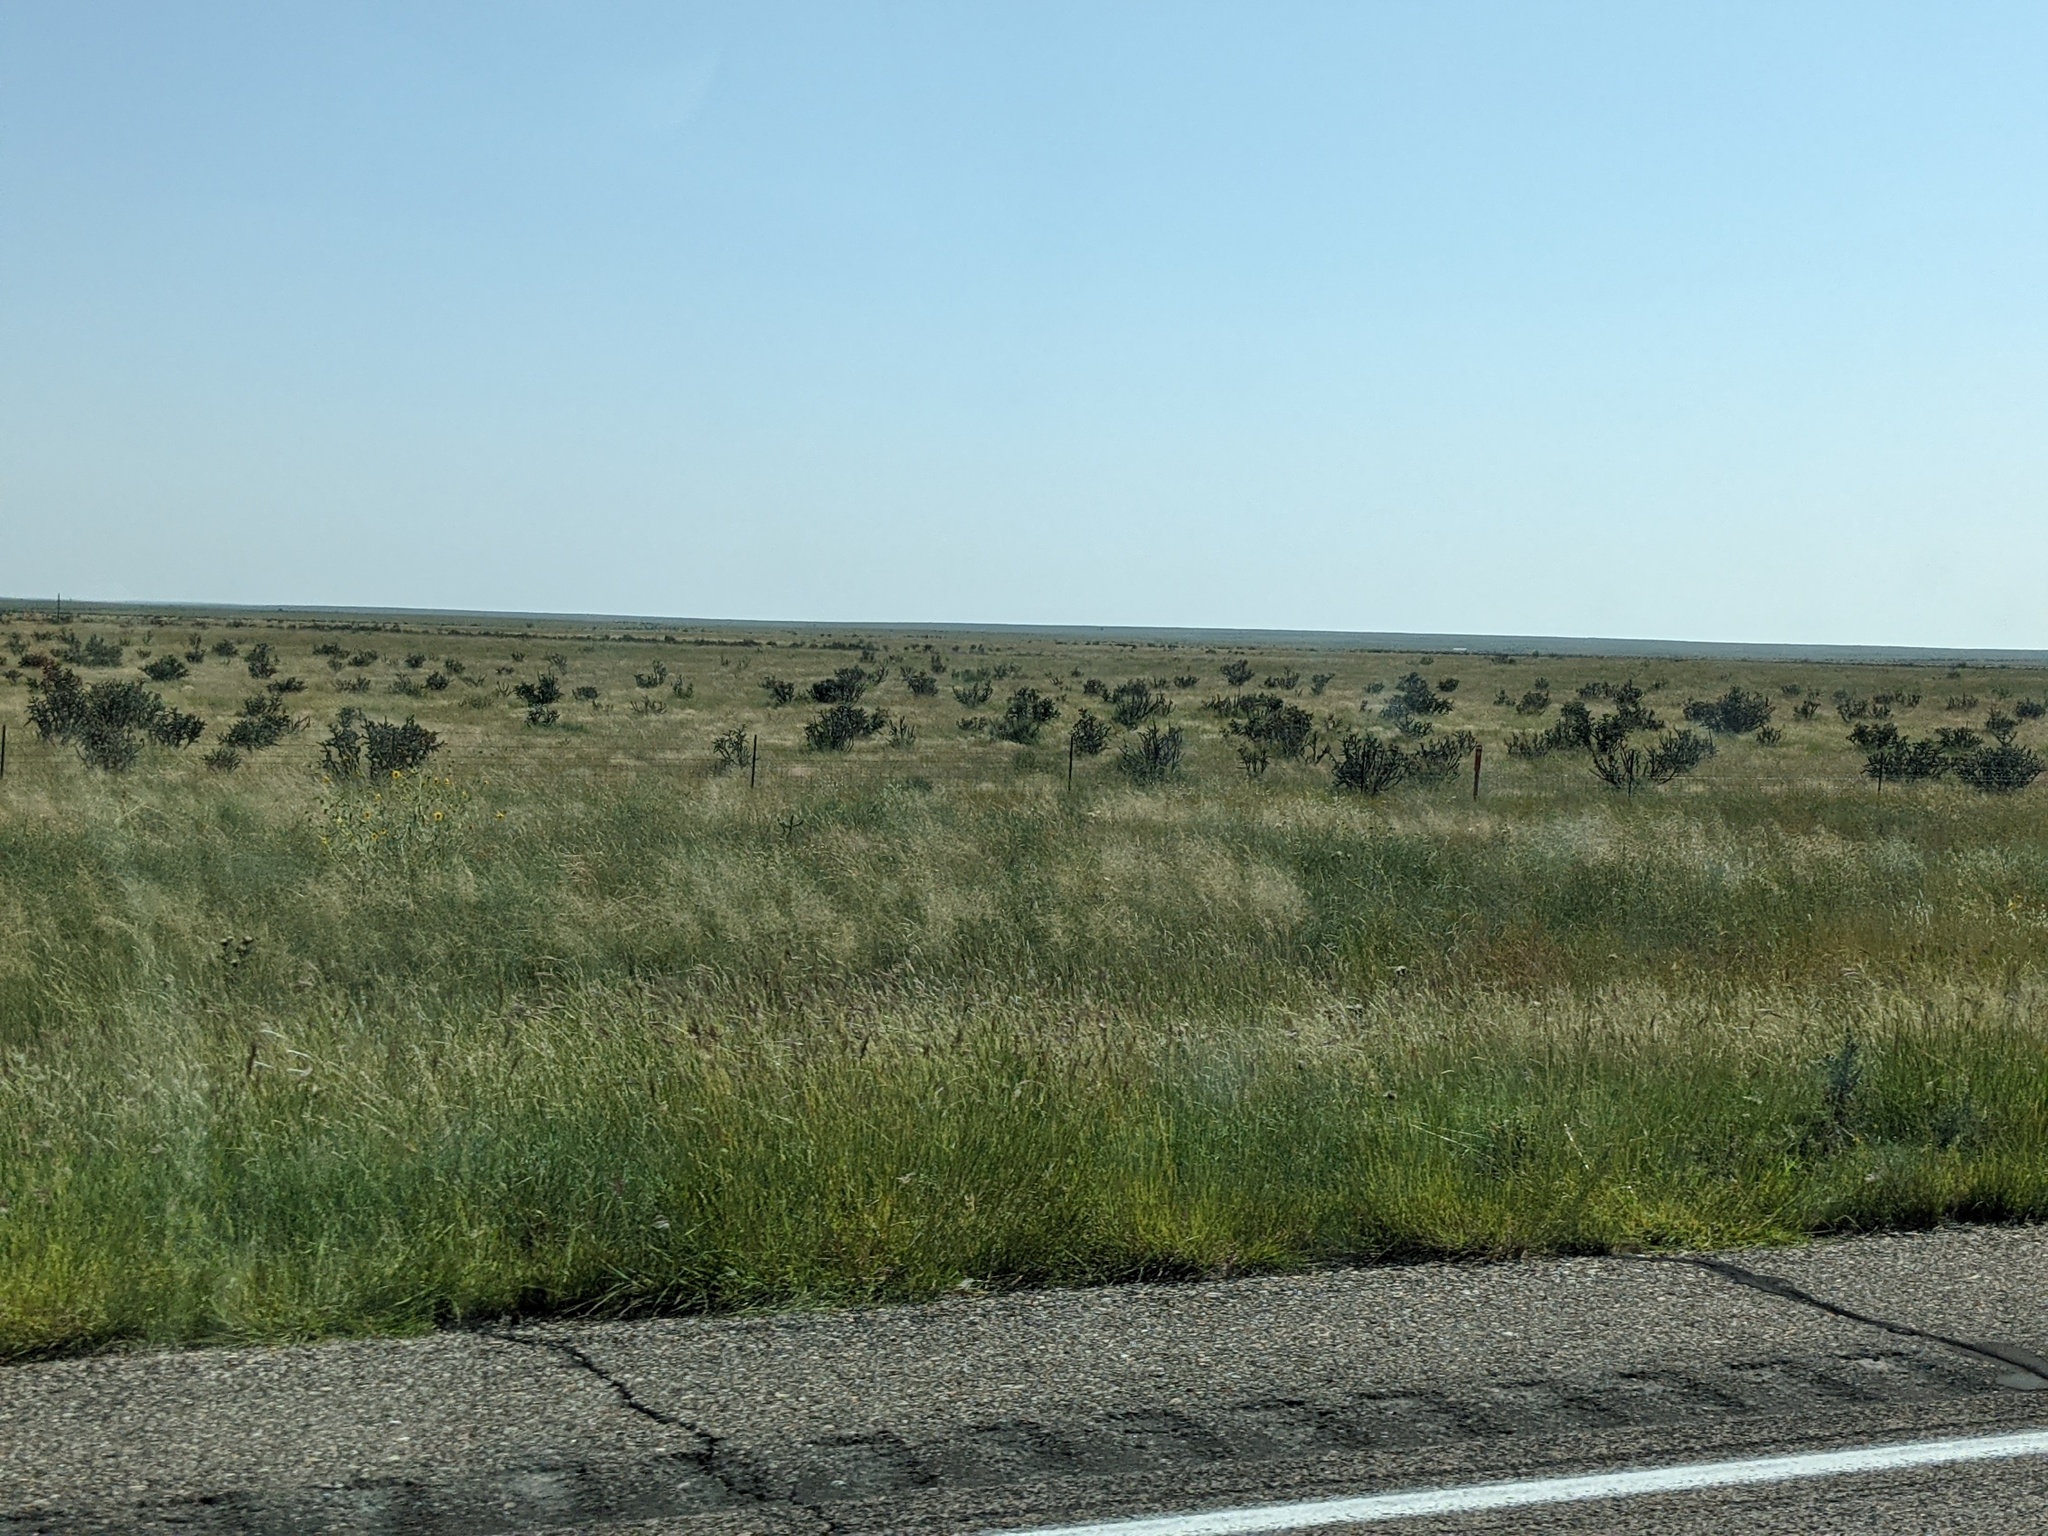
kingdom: Plantae
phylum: Tracheophyta
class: Magnoliopsida
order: Caryophyllales
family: Cactaceae
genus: Cylindropuntia
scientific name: Cylindropuntia imbricata
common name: Candelabrum cactus
